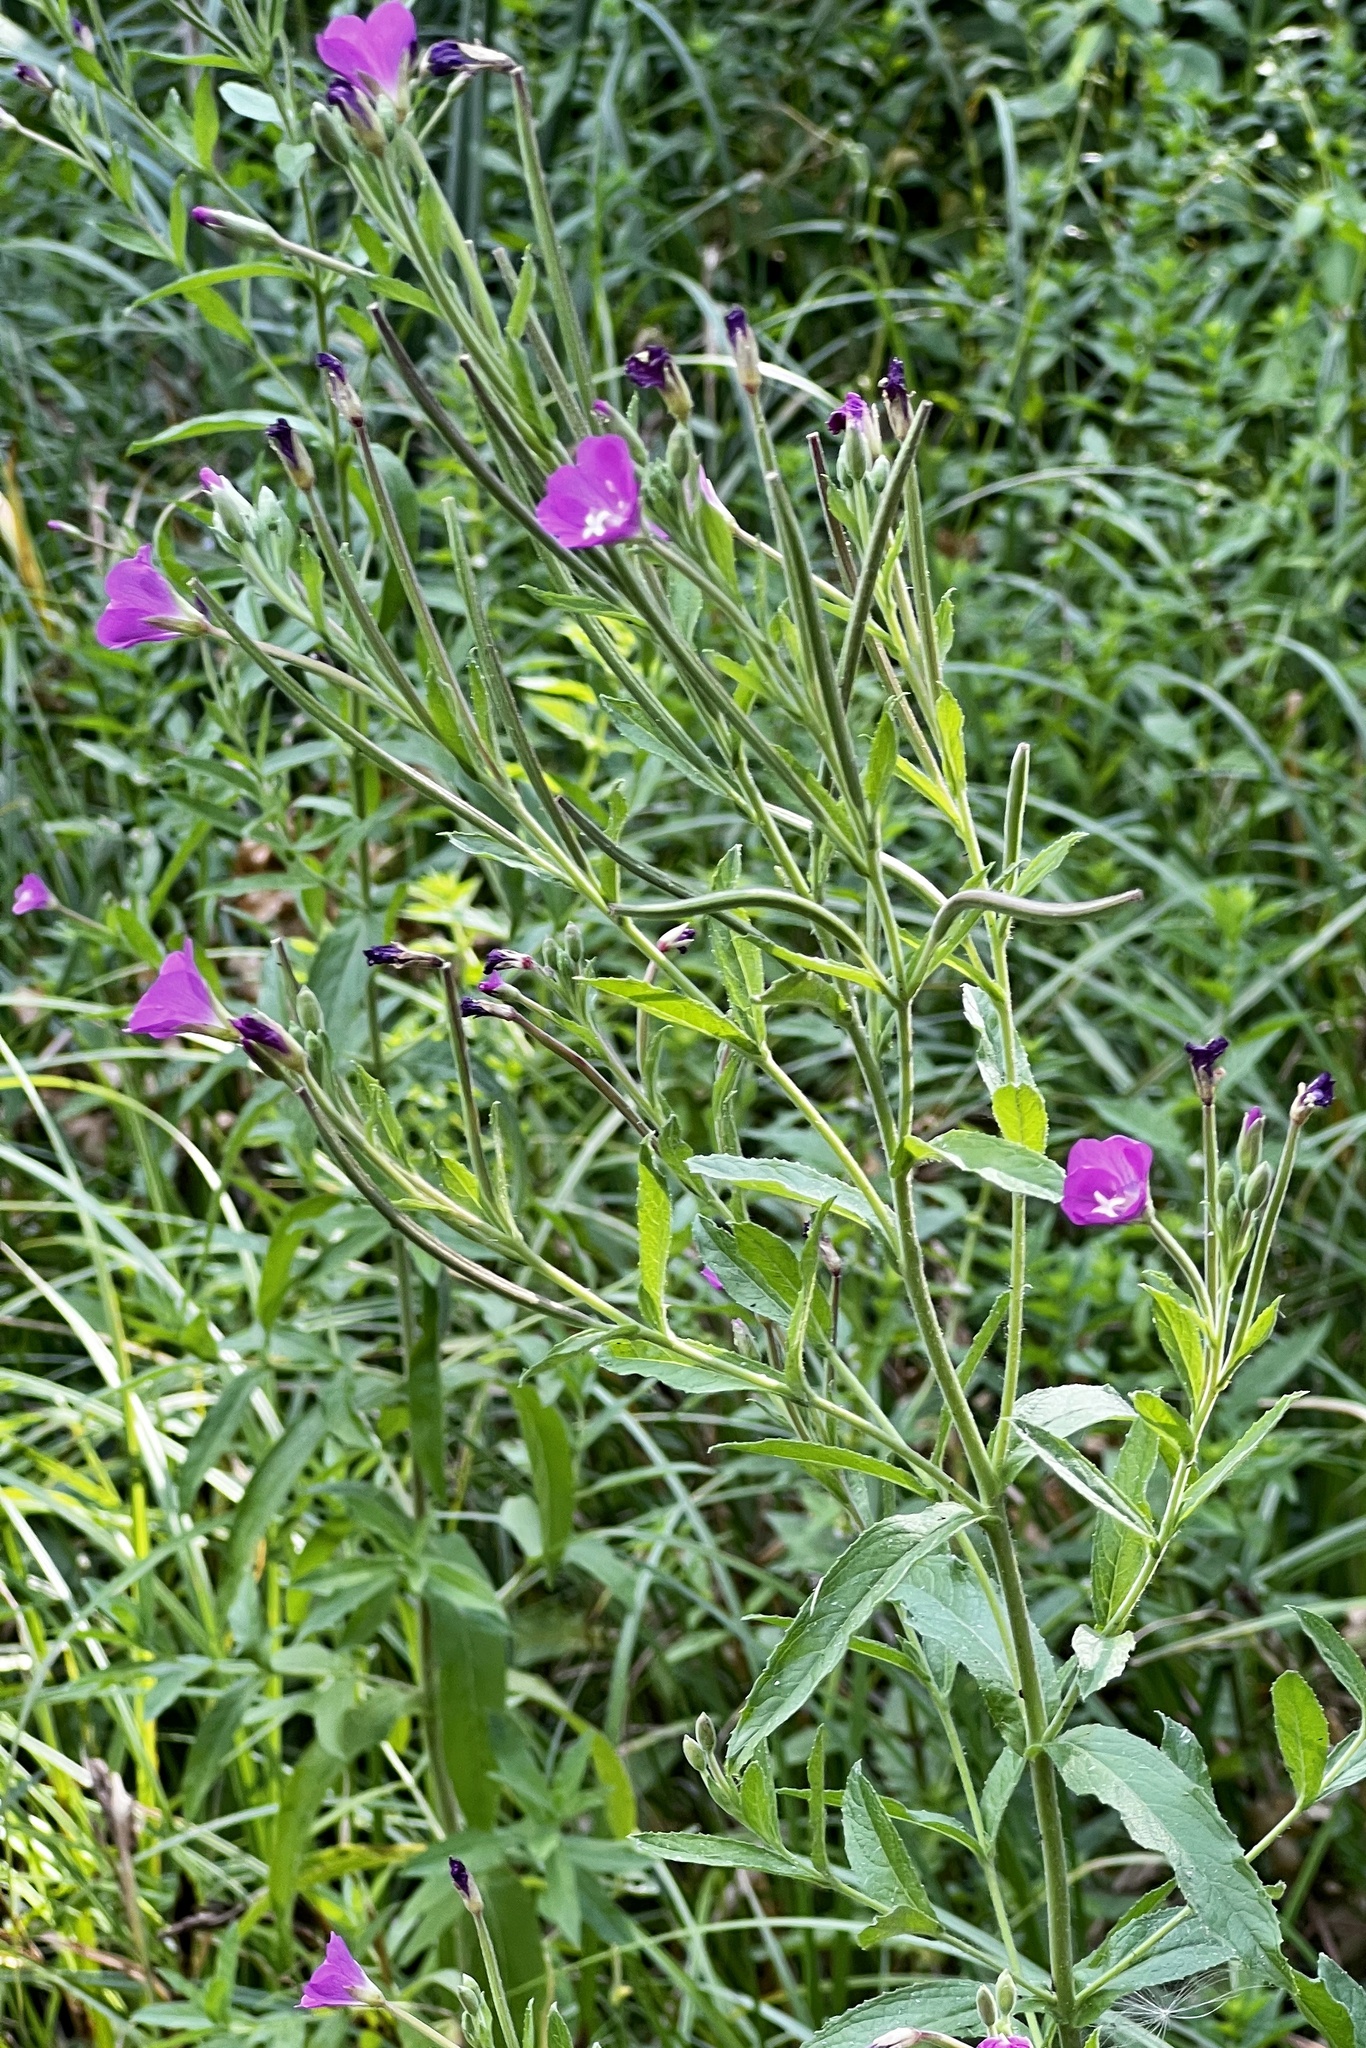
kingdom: Plantae
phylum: Tracheophyta
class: Magnoliopsida
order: Myrtales
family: Onagraceae
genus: Epilobium
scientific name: Epilobium hirsutum
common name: Great willowherb
